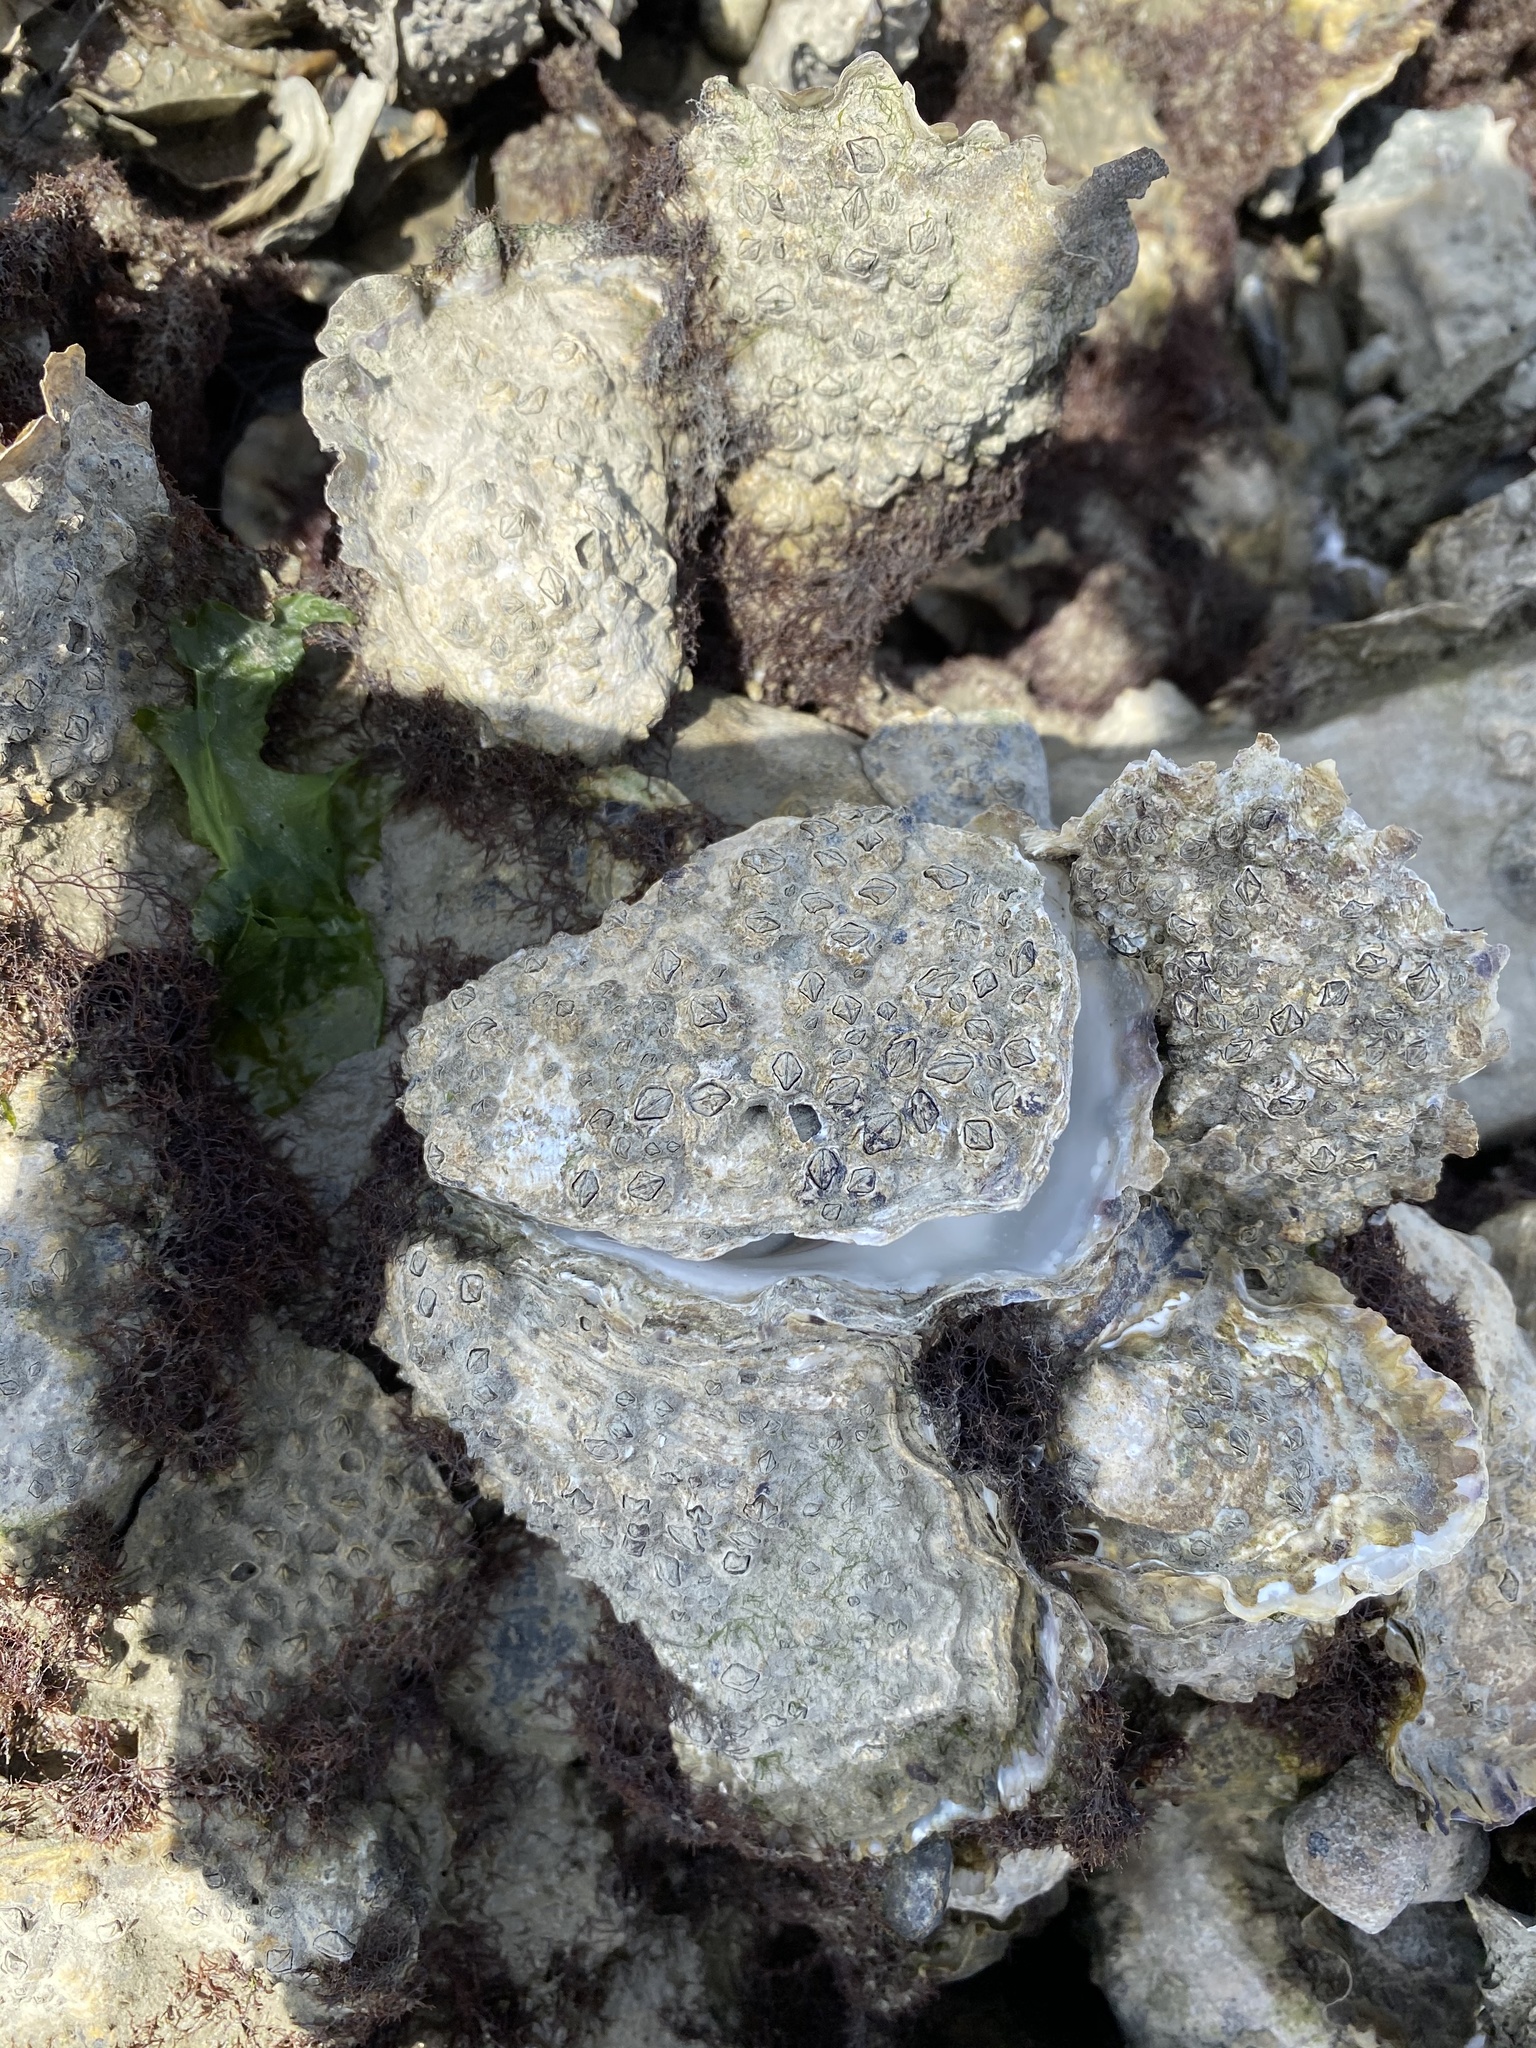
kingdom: Animalia
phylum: Mollusca
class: Bivalvia
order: Ostreida
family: Ostreidae
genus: Magallana
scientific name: Magallana gigas
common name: Pacific oyster
